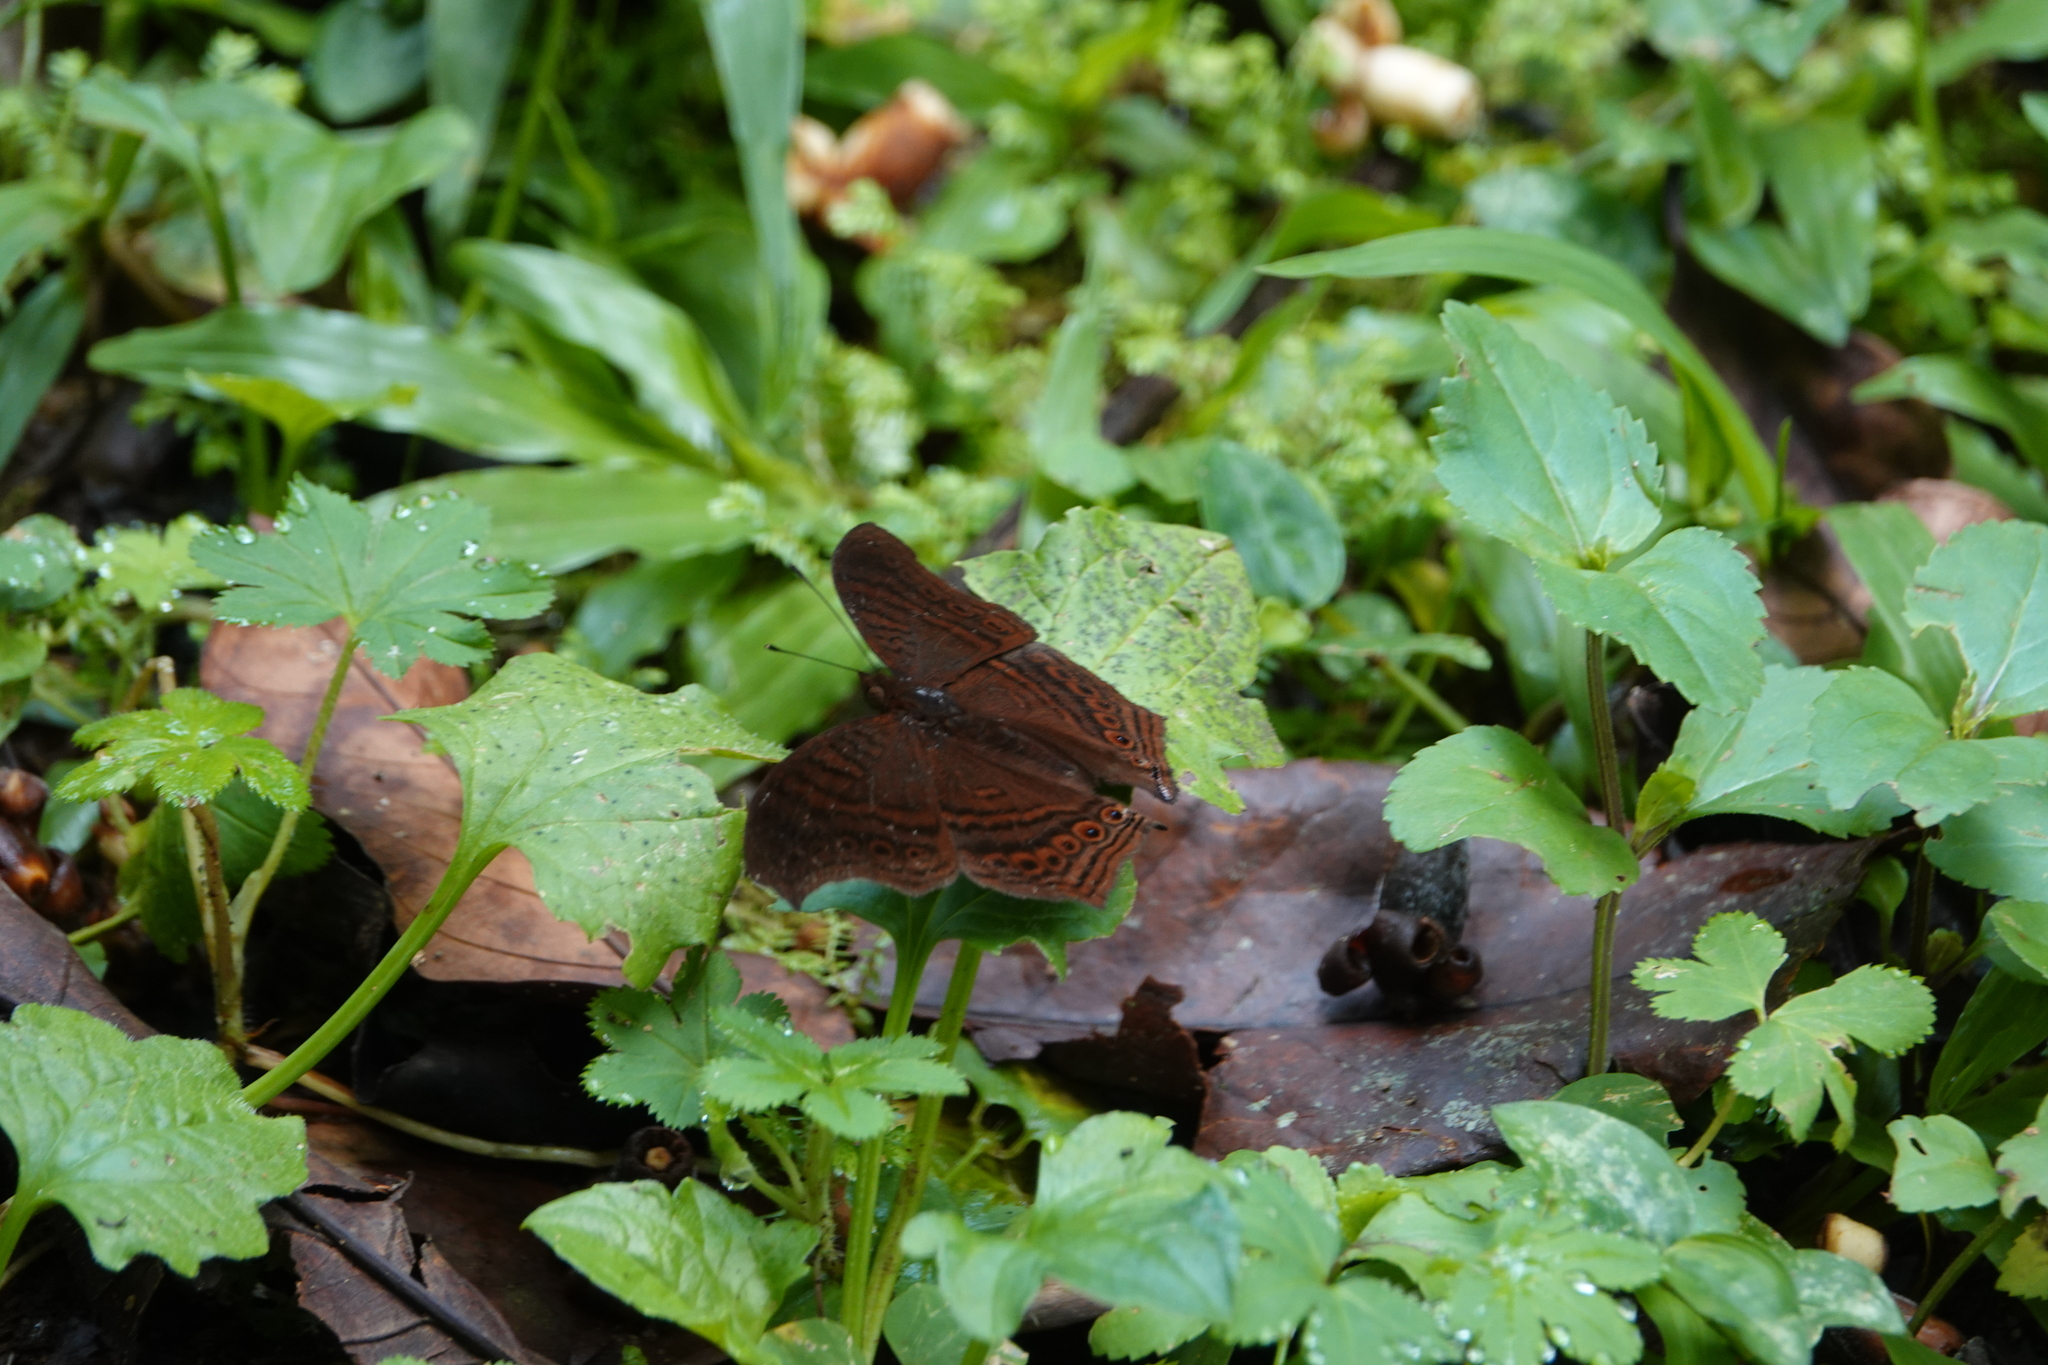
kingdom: Animalia
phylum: Arthropoda
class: Insecta
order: Lepidoptera
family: Nymphalidae
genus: Junonia
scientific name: Junonia stygia
